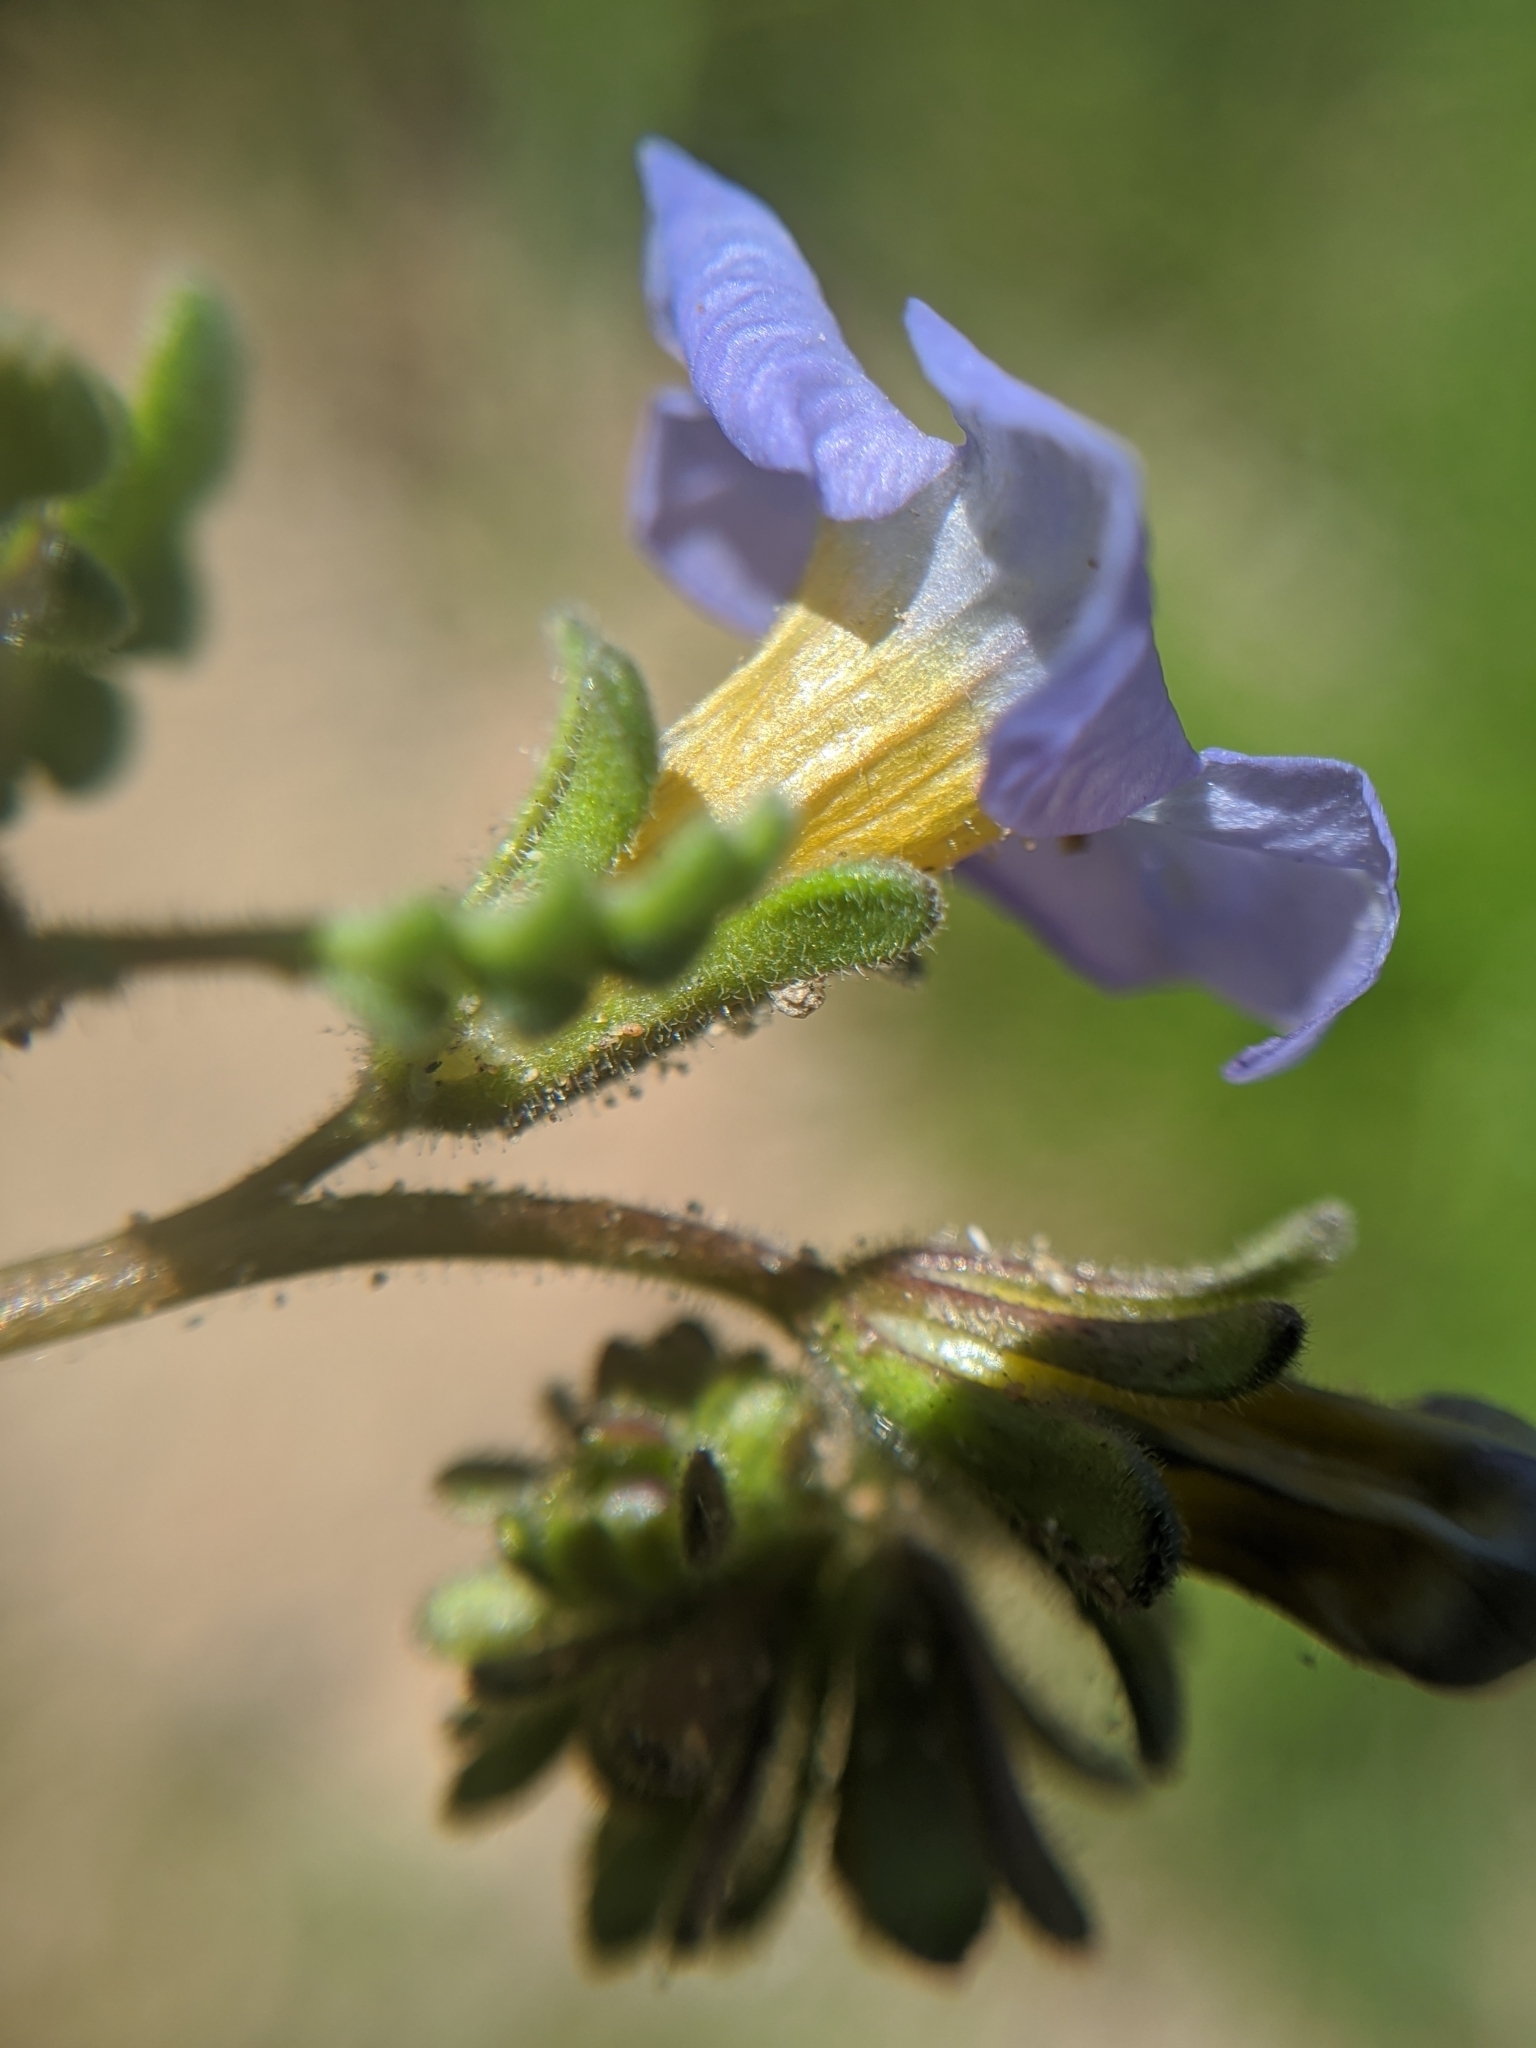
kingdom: Plantae
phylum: Tracheophyta
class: Magnoliopsida
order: Boraginales
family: Hydrophyllaceae
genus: Phacelia
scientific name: Phacelia fremontii
